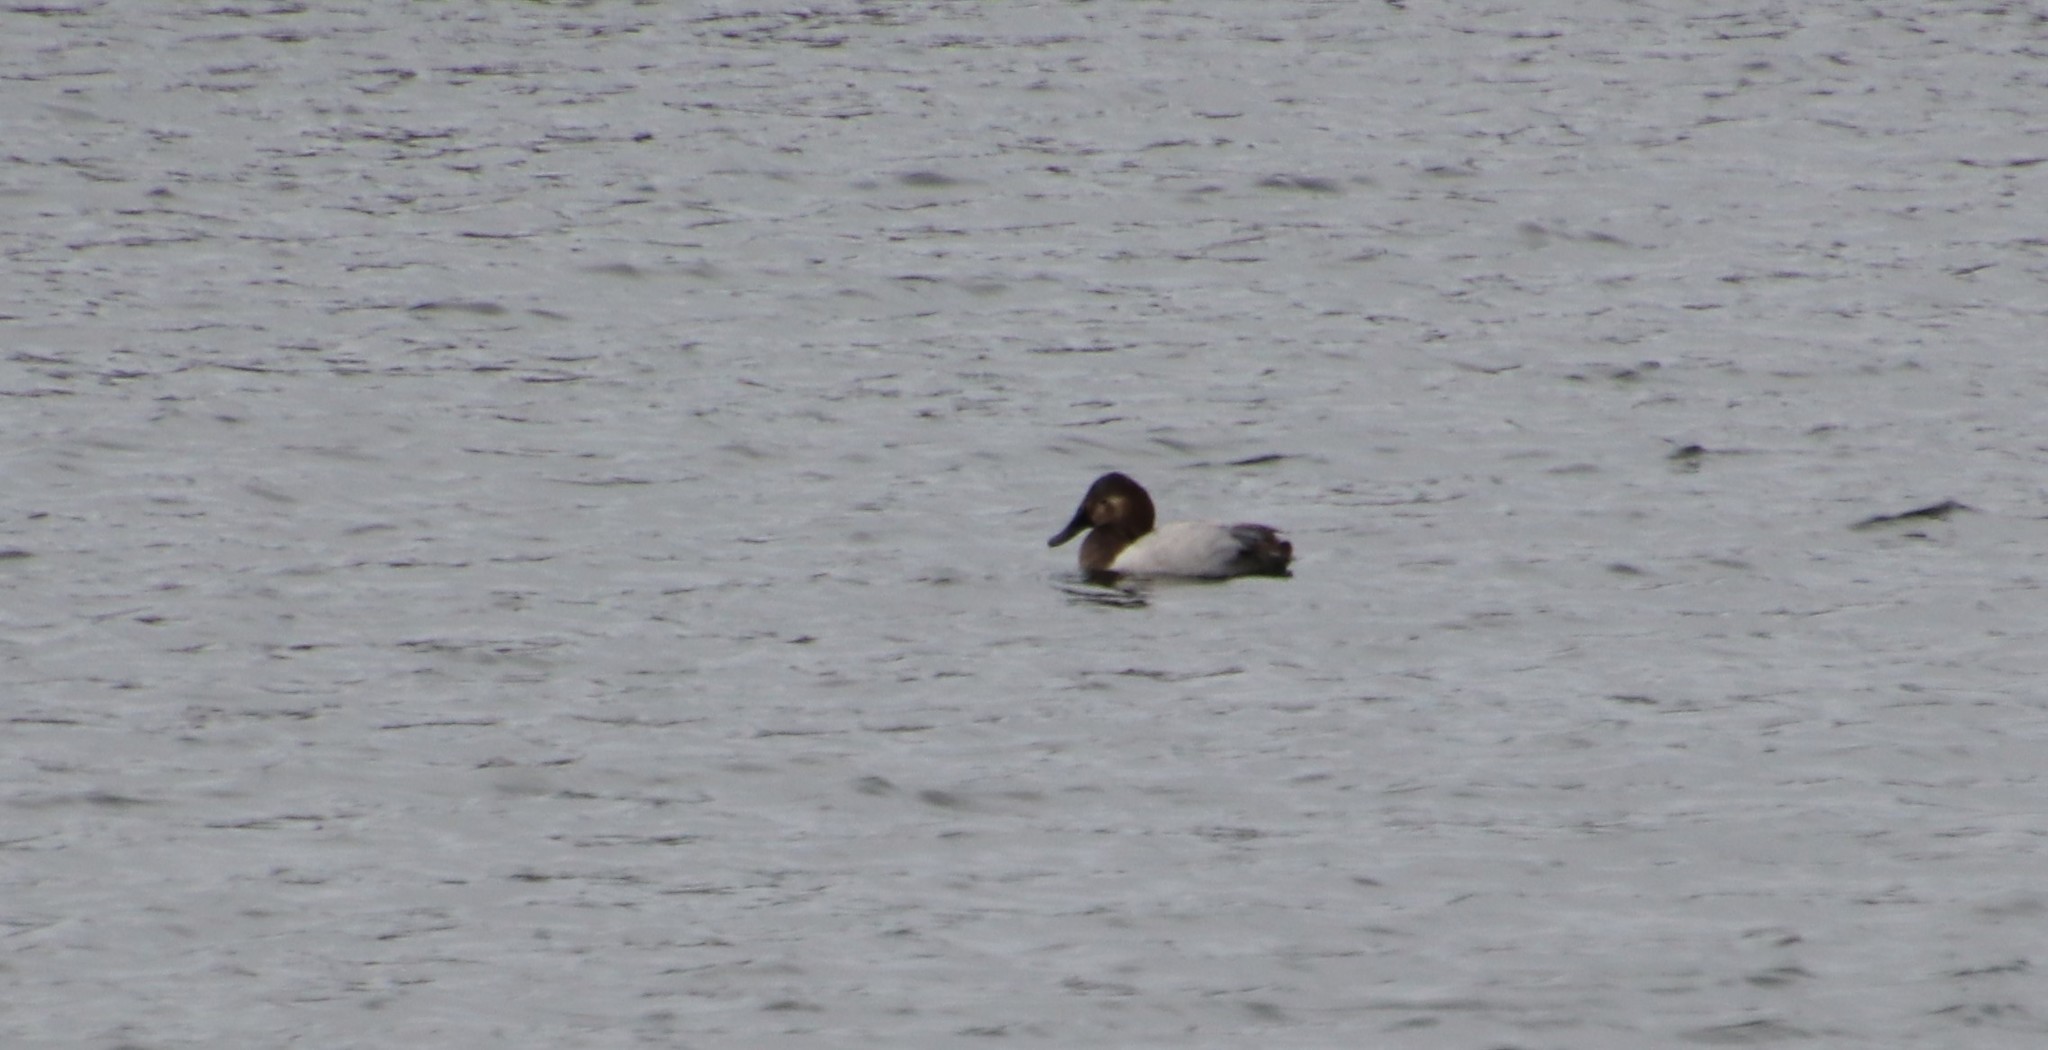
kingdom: Animalia
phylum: Chordata
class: Aves
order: Anseriformes
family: Anatidae
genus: Aythya
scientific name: Aythya valisineria
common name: Canvasback
